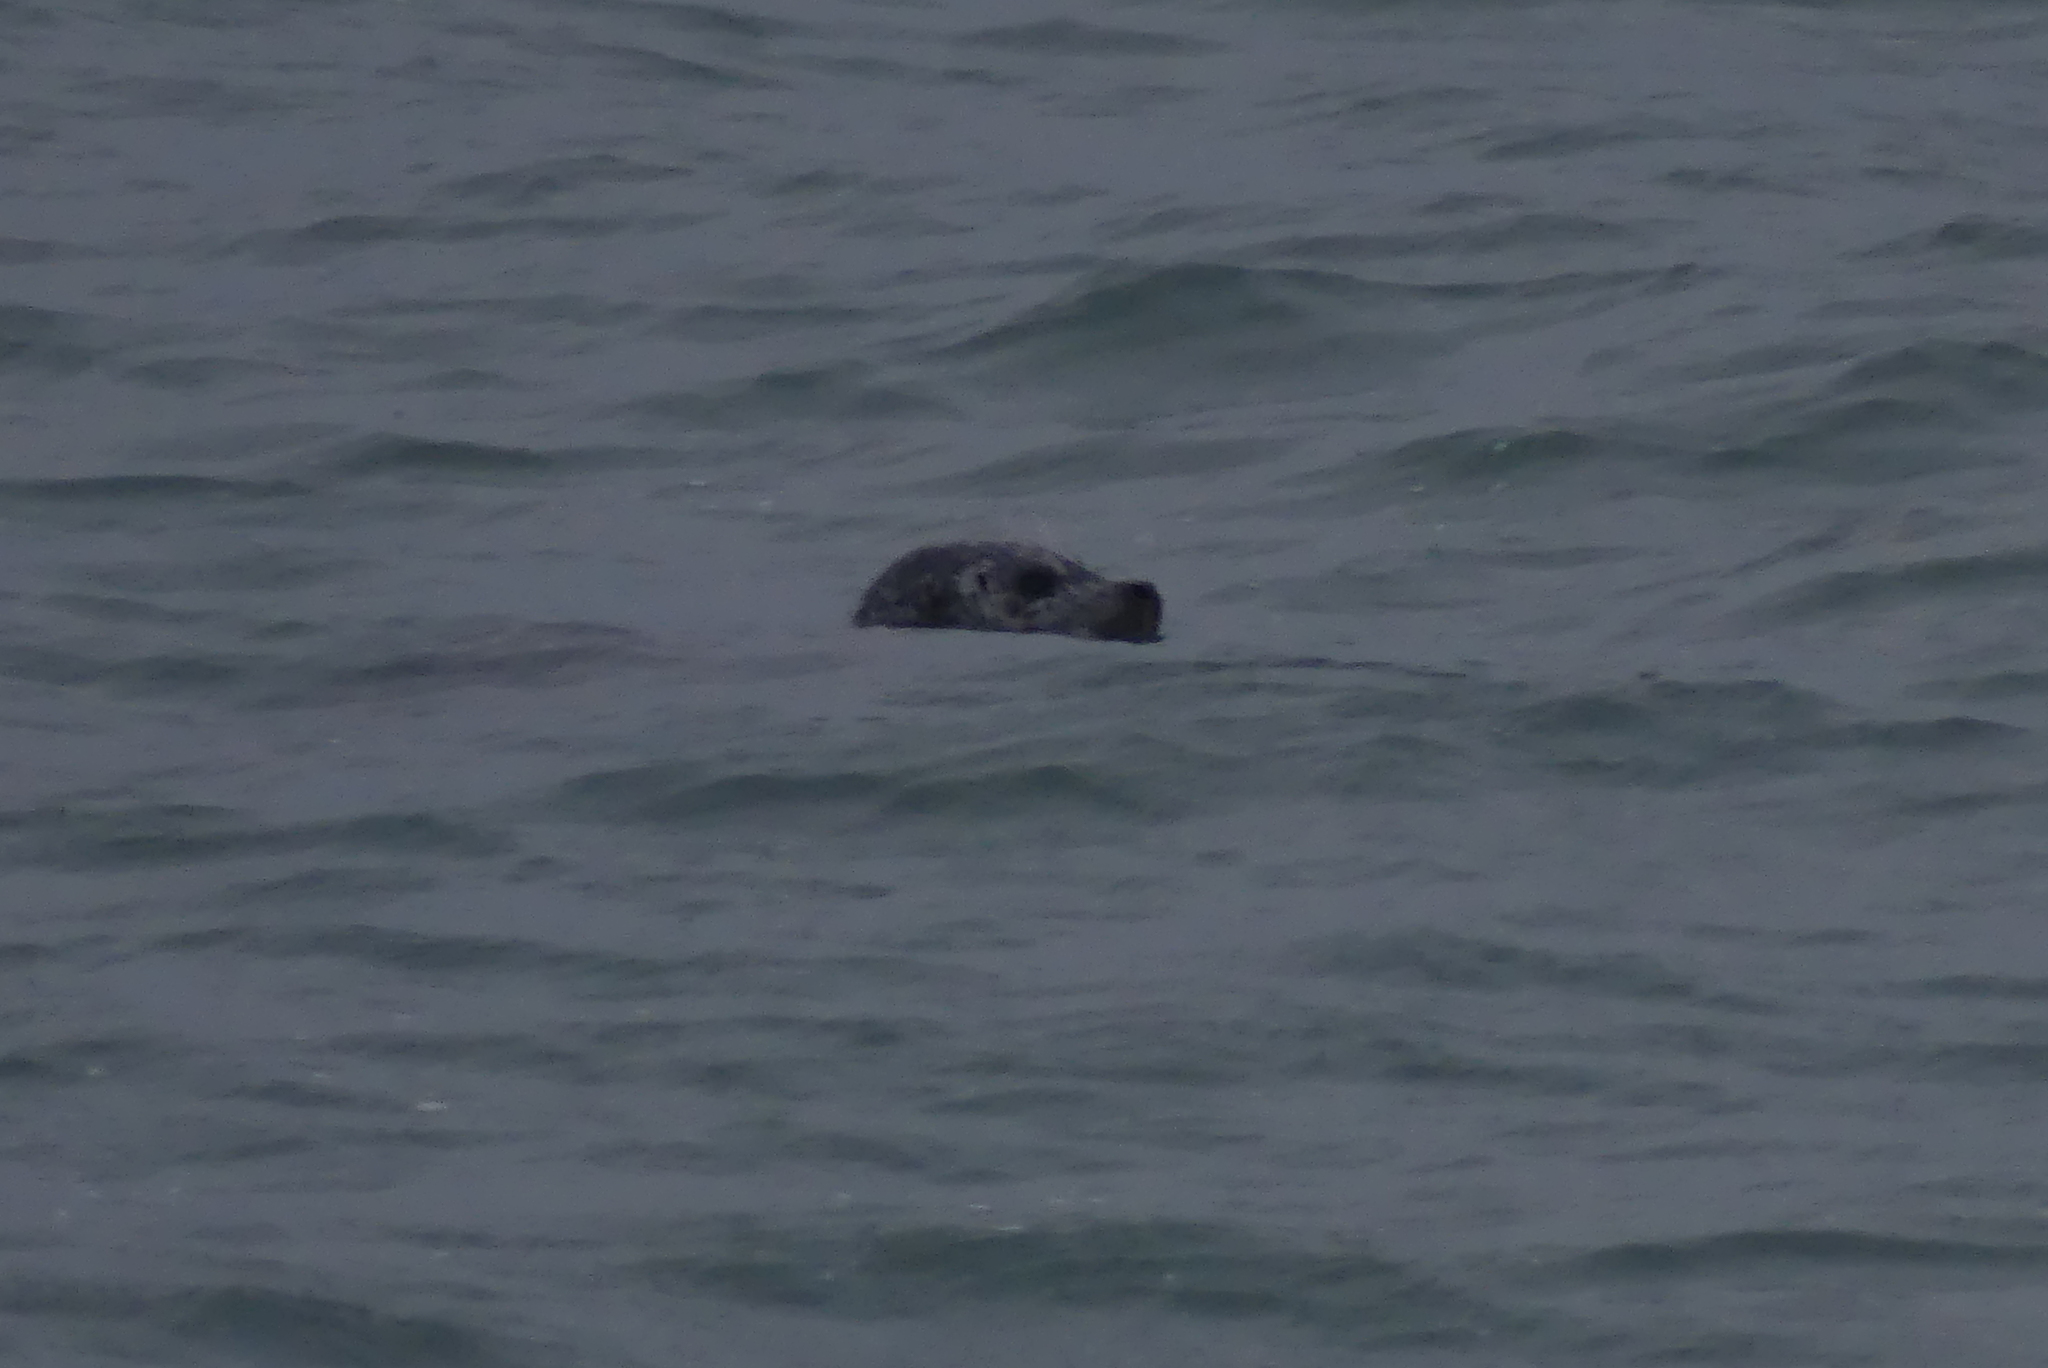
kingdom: Animalia
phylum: Chordata
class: Mammalia
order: Carnivora
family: Phocidae
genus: Phoca
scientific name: Phoca vitulina
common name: Harbor seal
